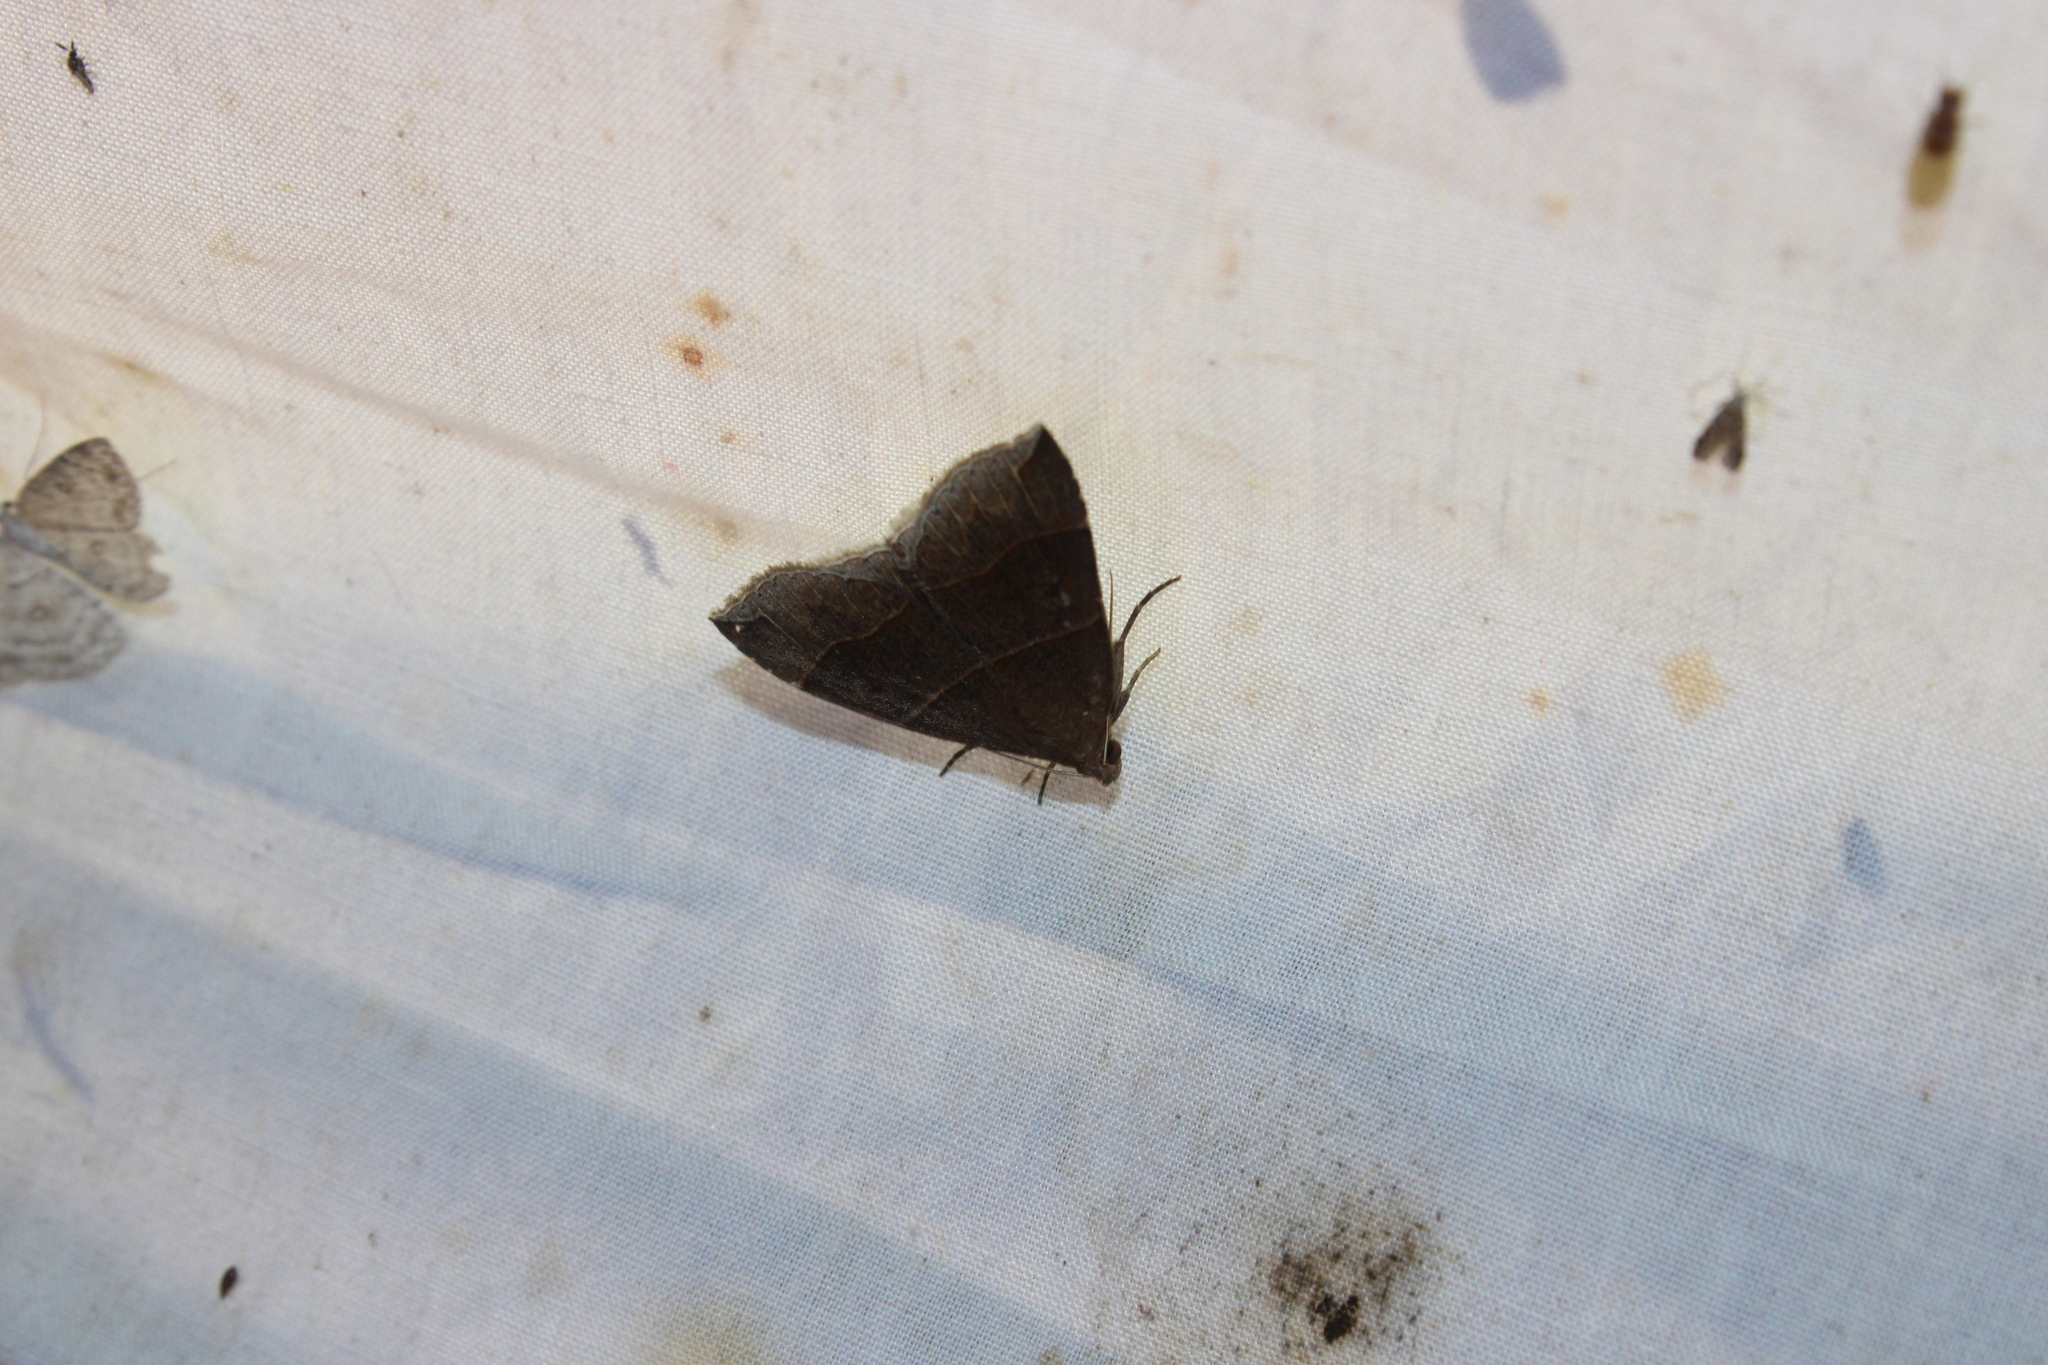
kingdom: Animalia
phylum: Arthropoda
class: Insecta
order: Lepidoptera
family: Erebidae
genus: Parallelia
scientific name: Parallelia bistriaris
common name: Maple looper moth
